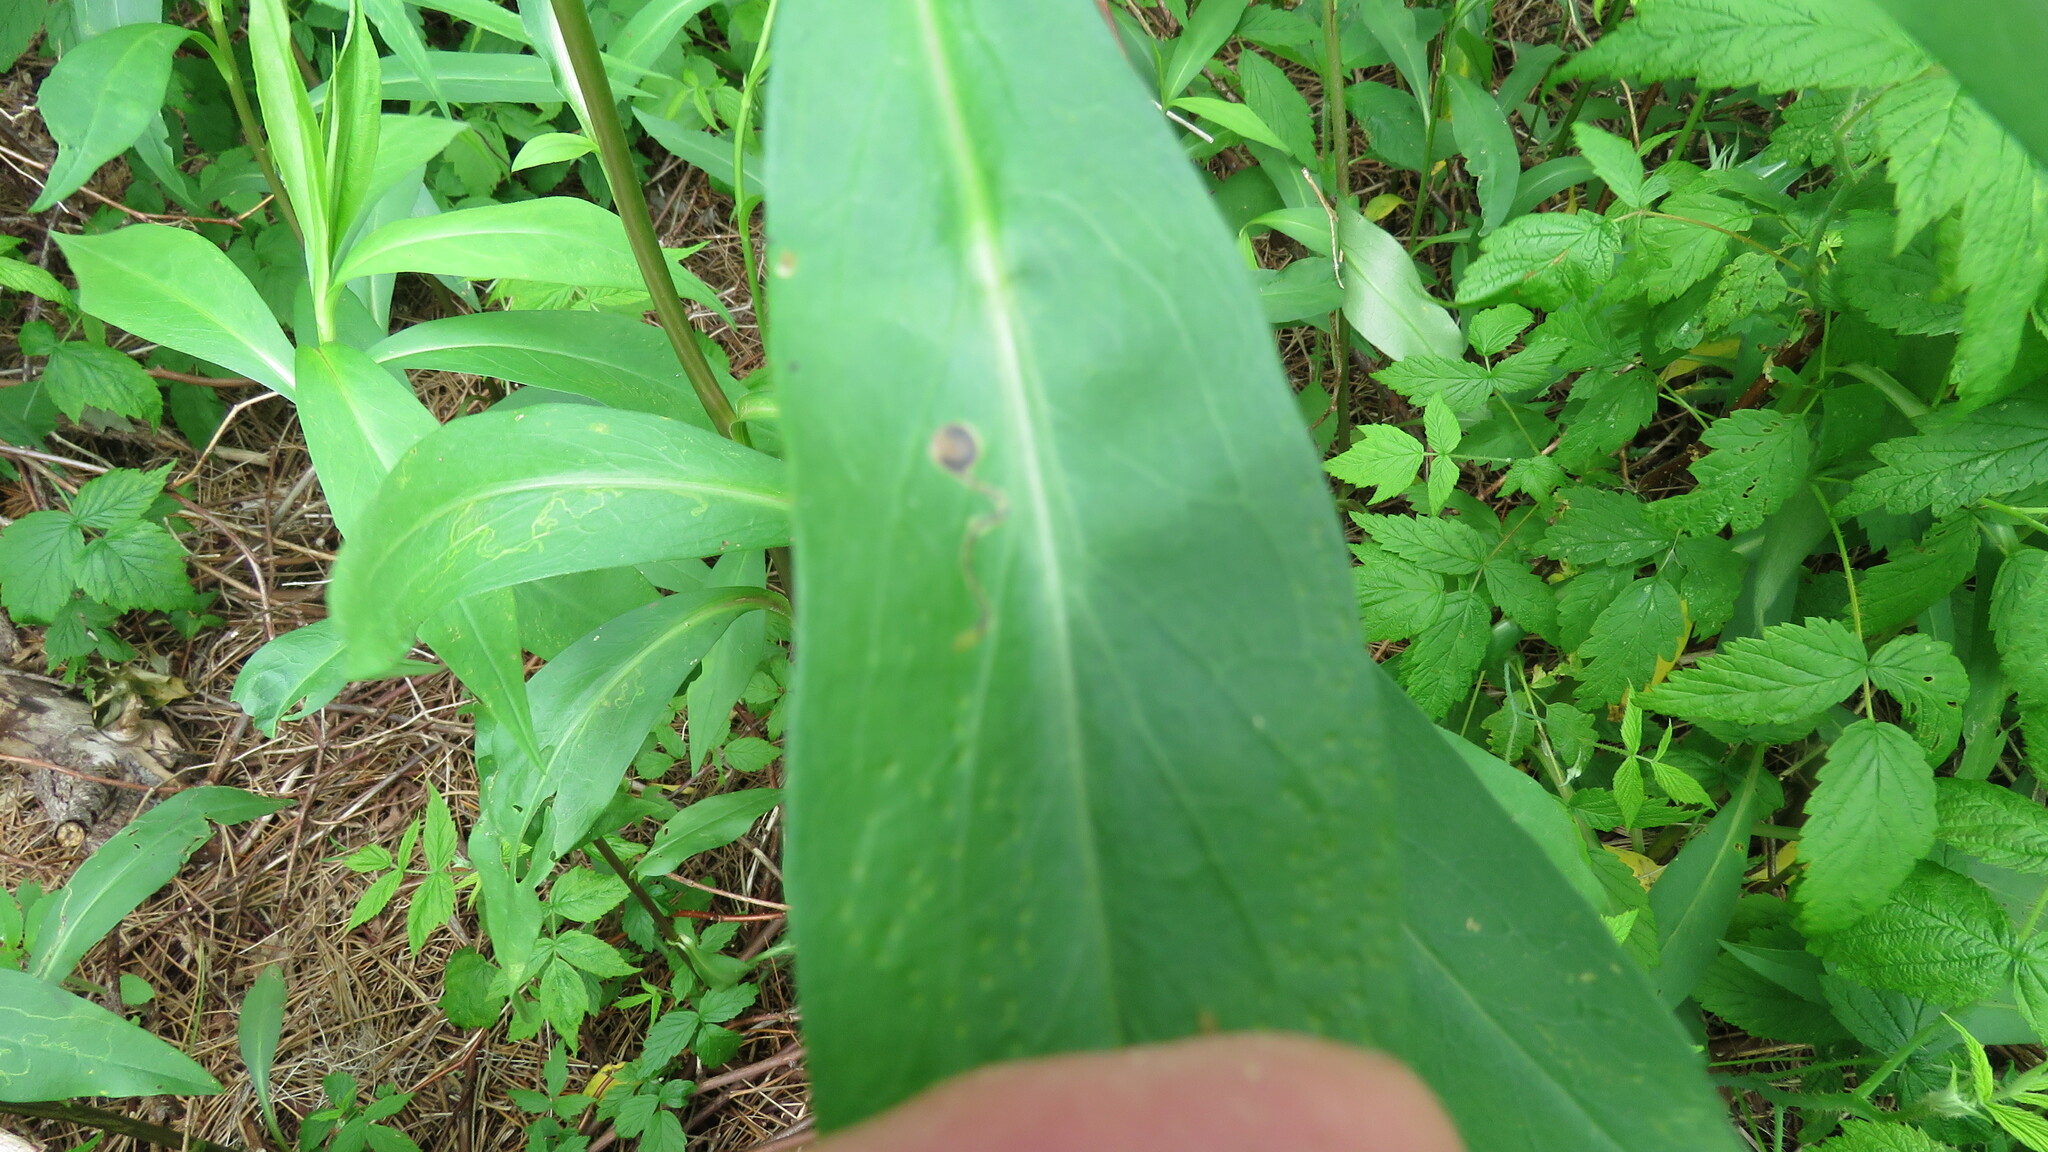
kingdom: Animalia
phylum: Arthropoda
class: Insecta
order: Diptera
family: Agromyzidae
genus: Liriomyza
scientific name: Liriomyza eupatorii
